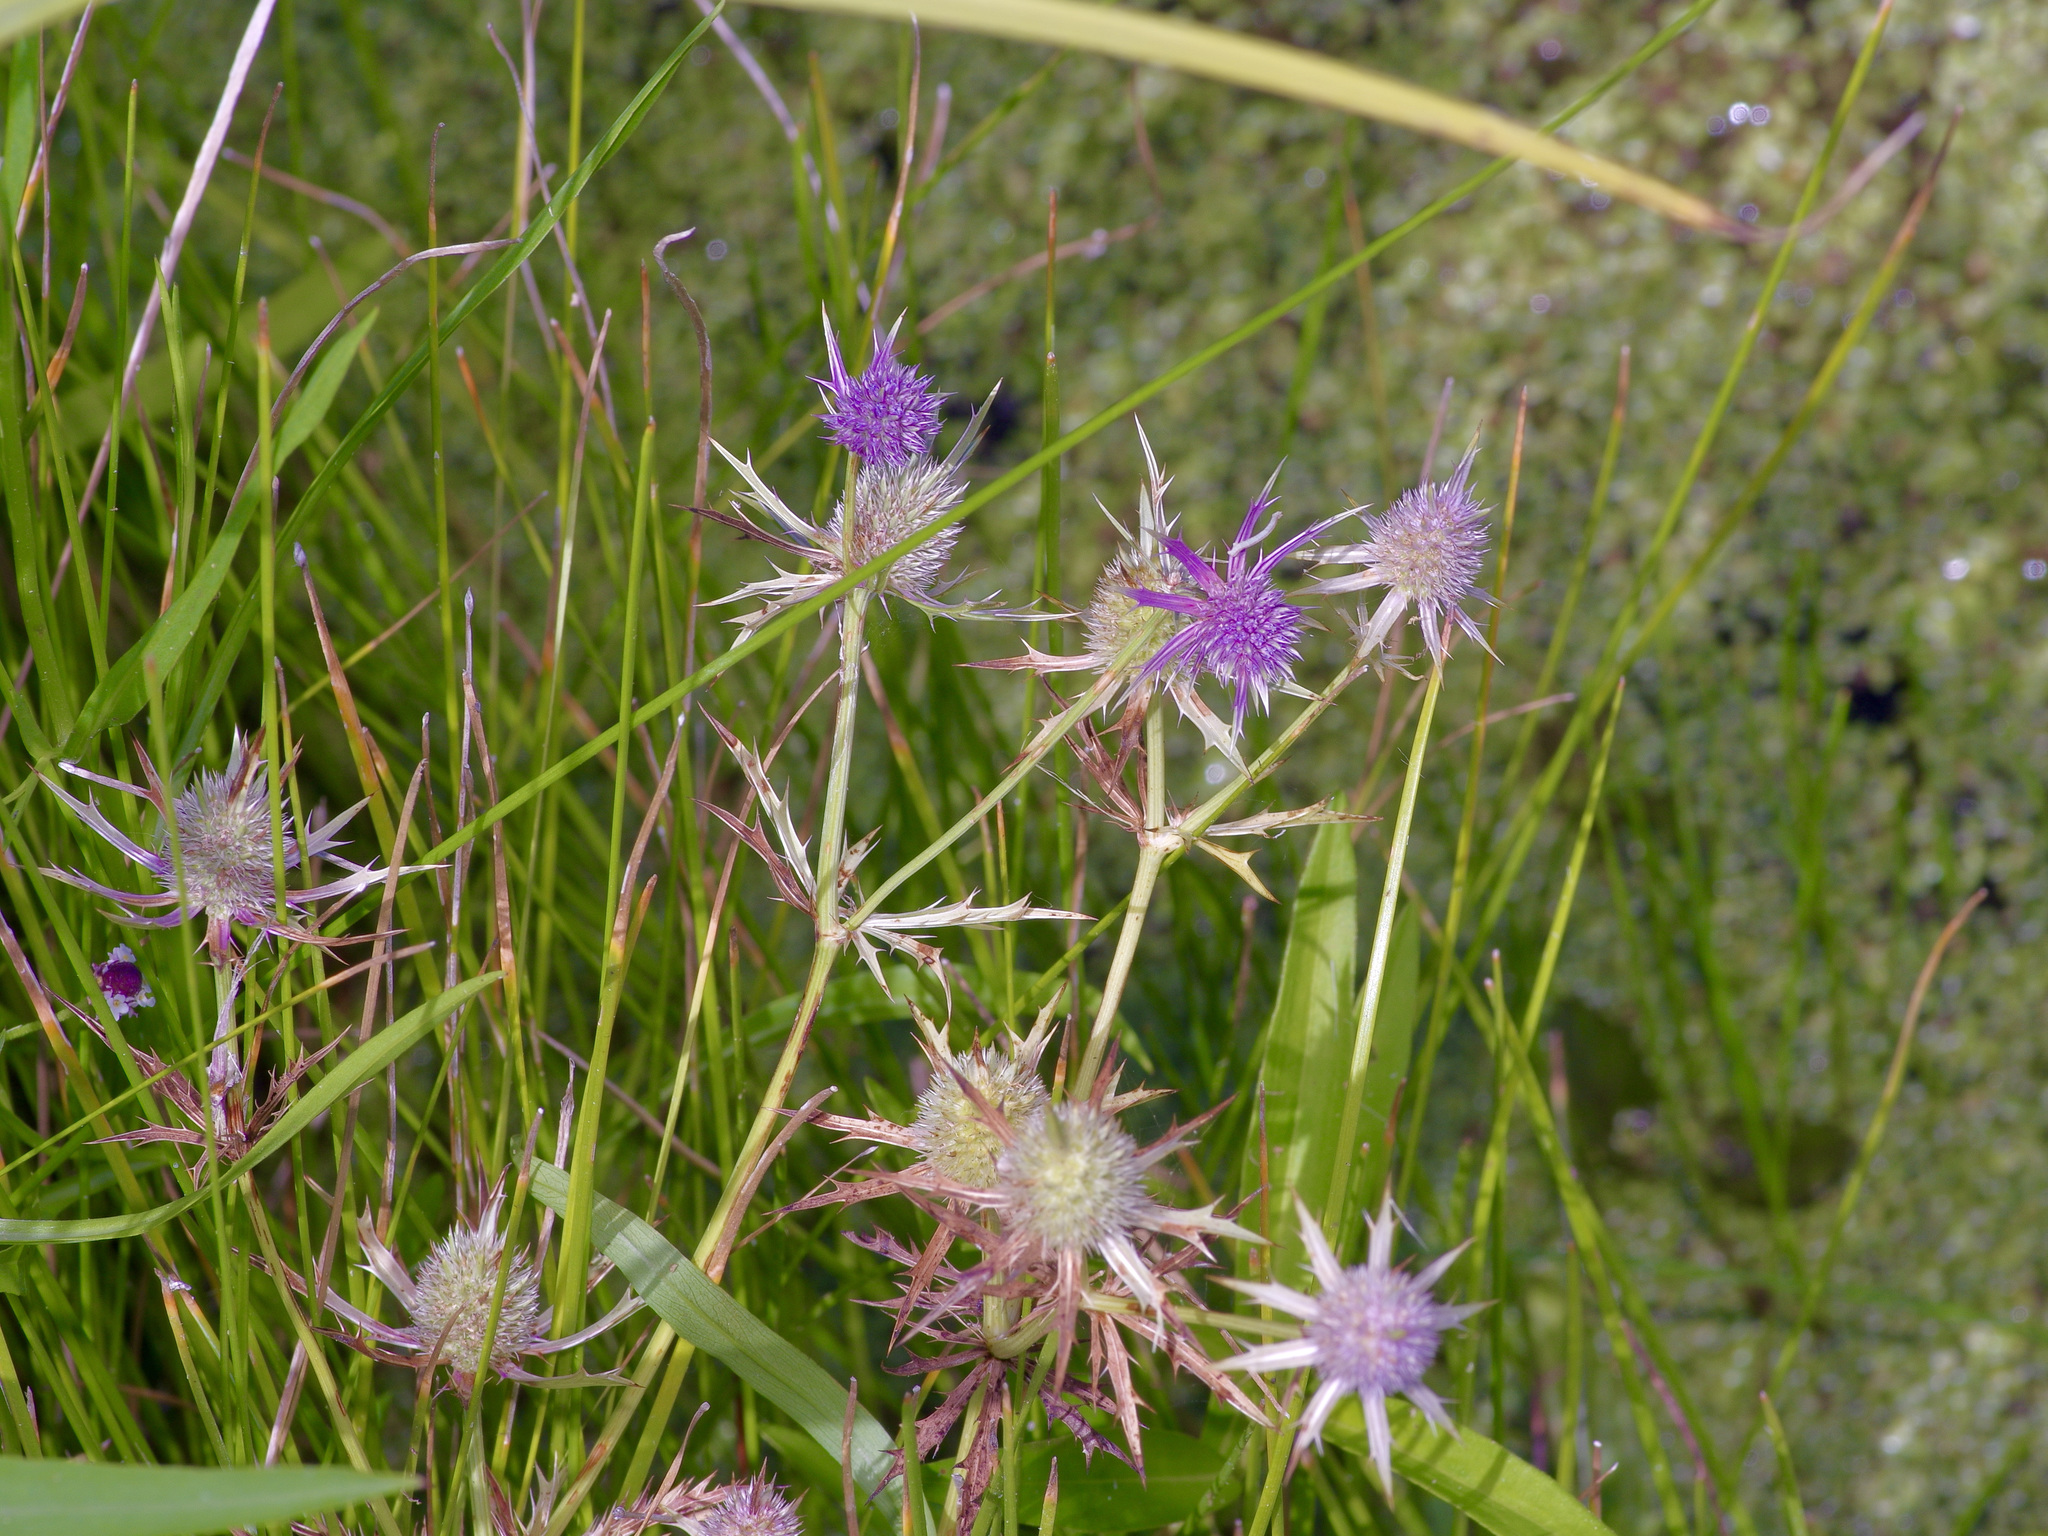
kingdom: Plantae
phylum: Tracheophyta
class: Magnoliopsida
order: Apiales
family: Apiaceae
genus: Eryngium
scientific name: Eryngium hookeri
